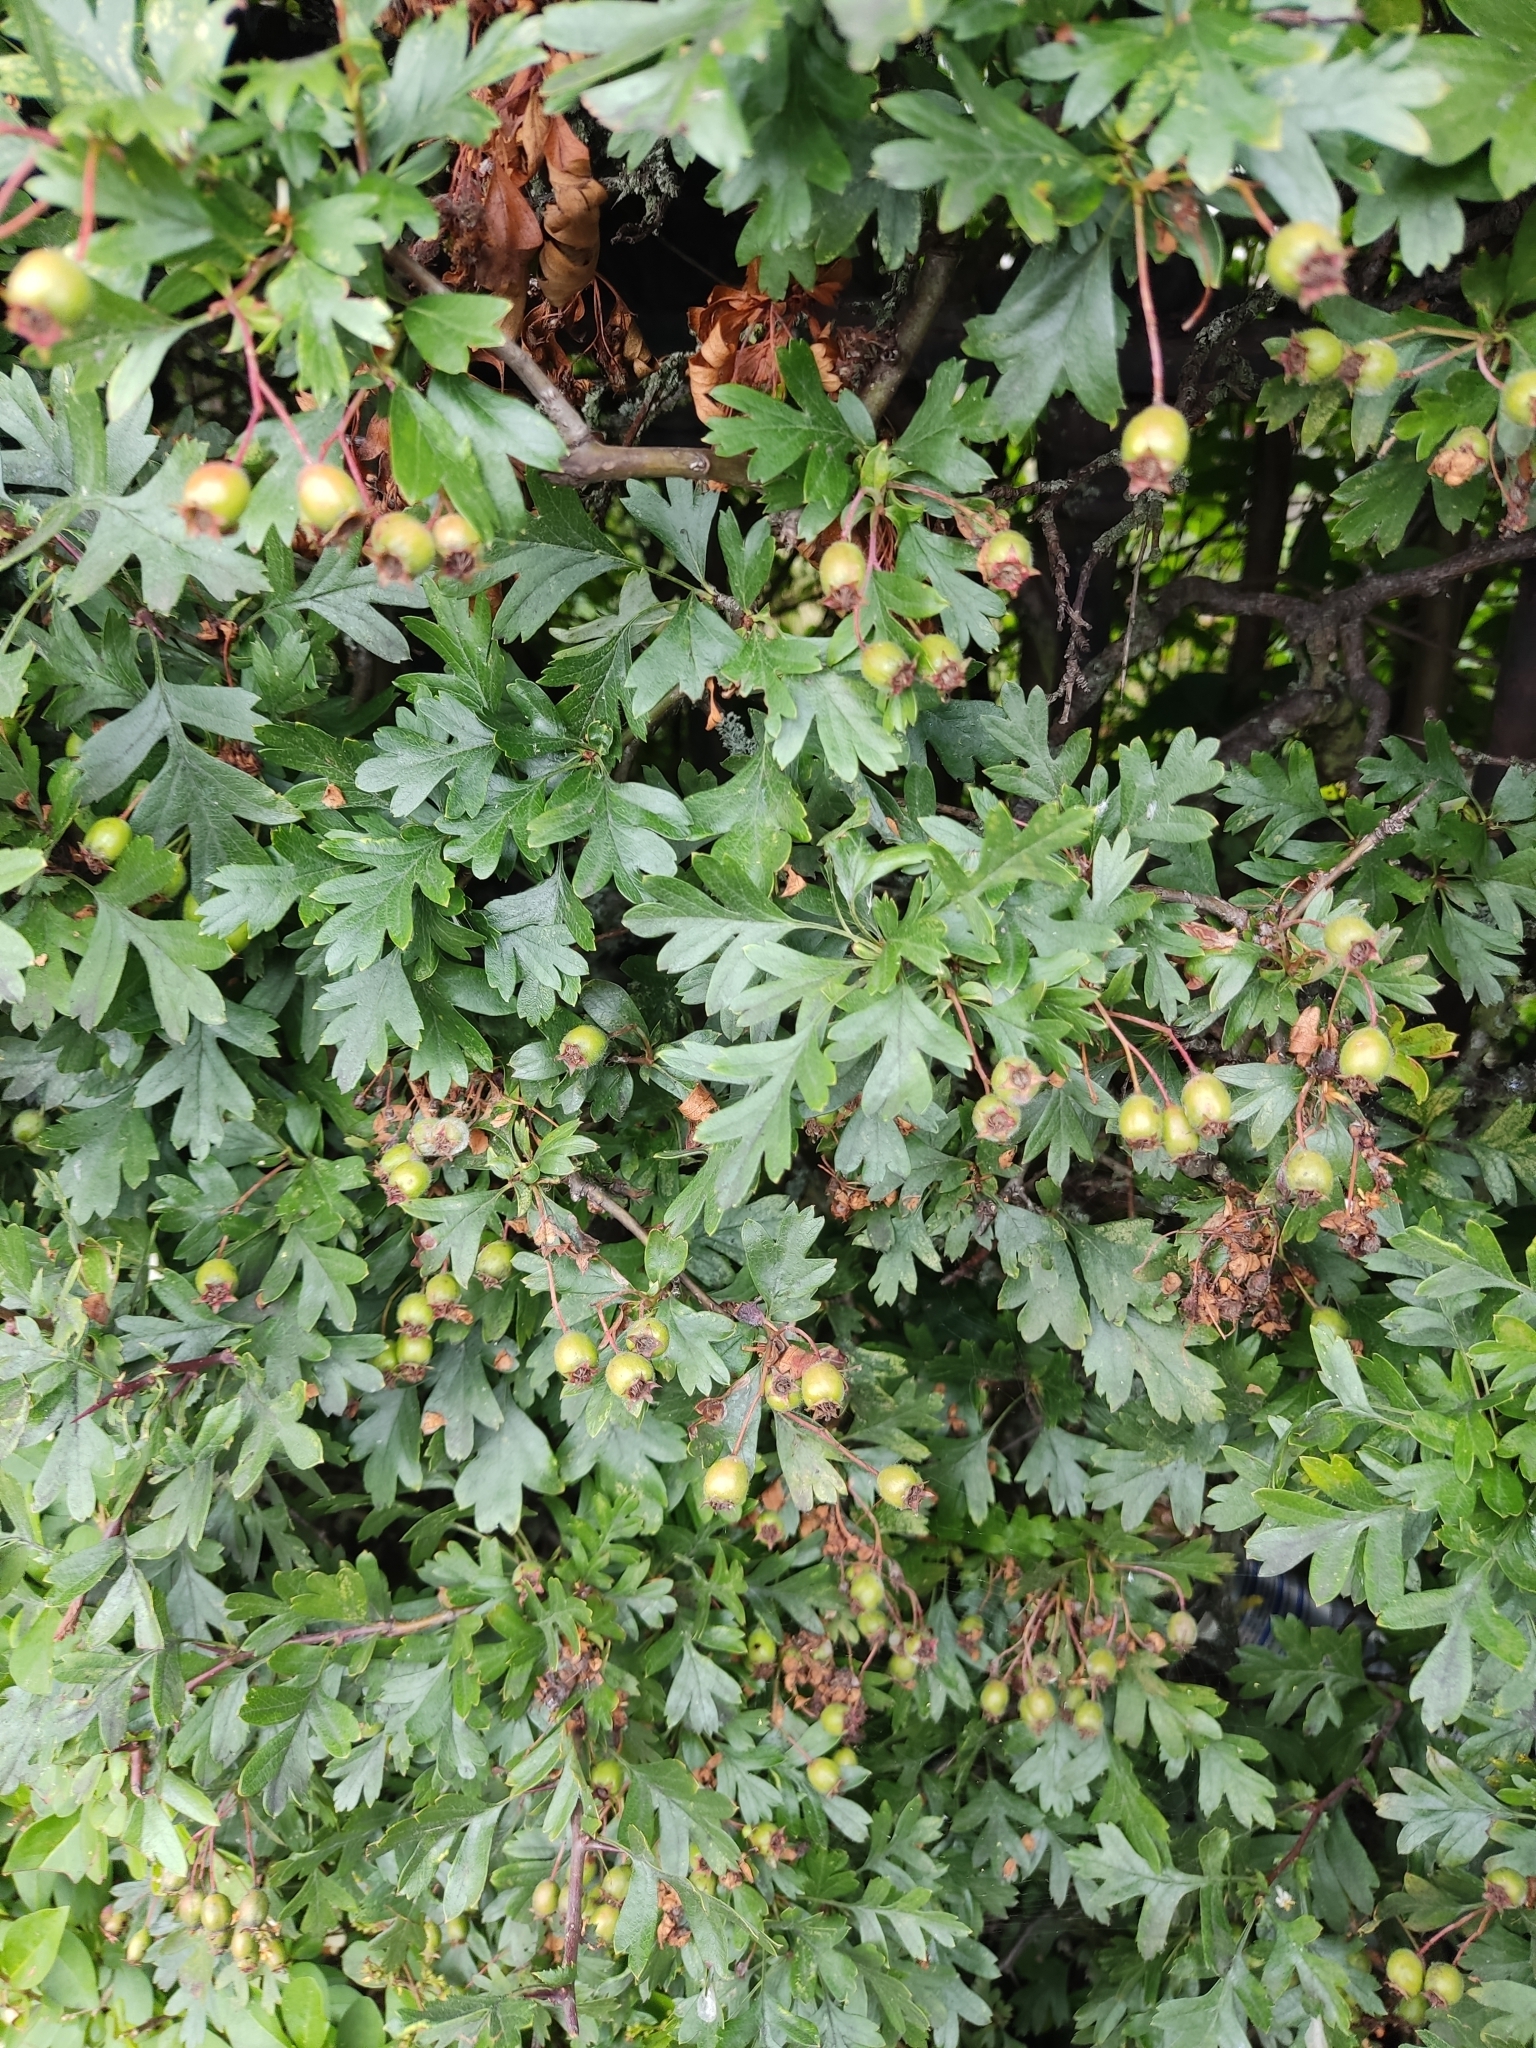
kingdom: Plantae
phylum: Tracheophyta
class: Magnoliopsida
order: Rosales
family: Rosaceae
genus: Crataegus
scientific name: Crataegus monogyna
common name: Hawthorn
